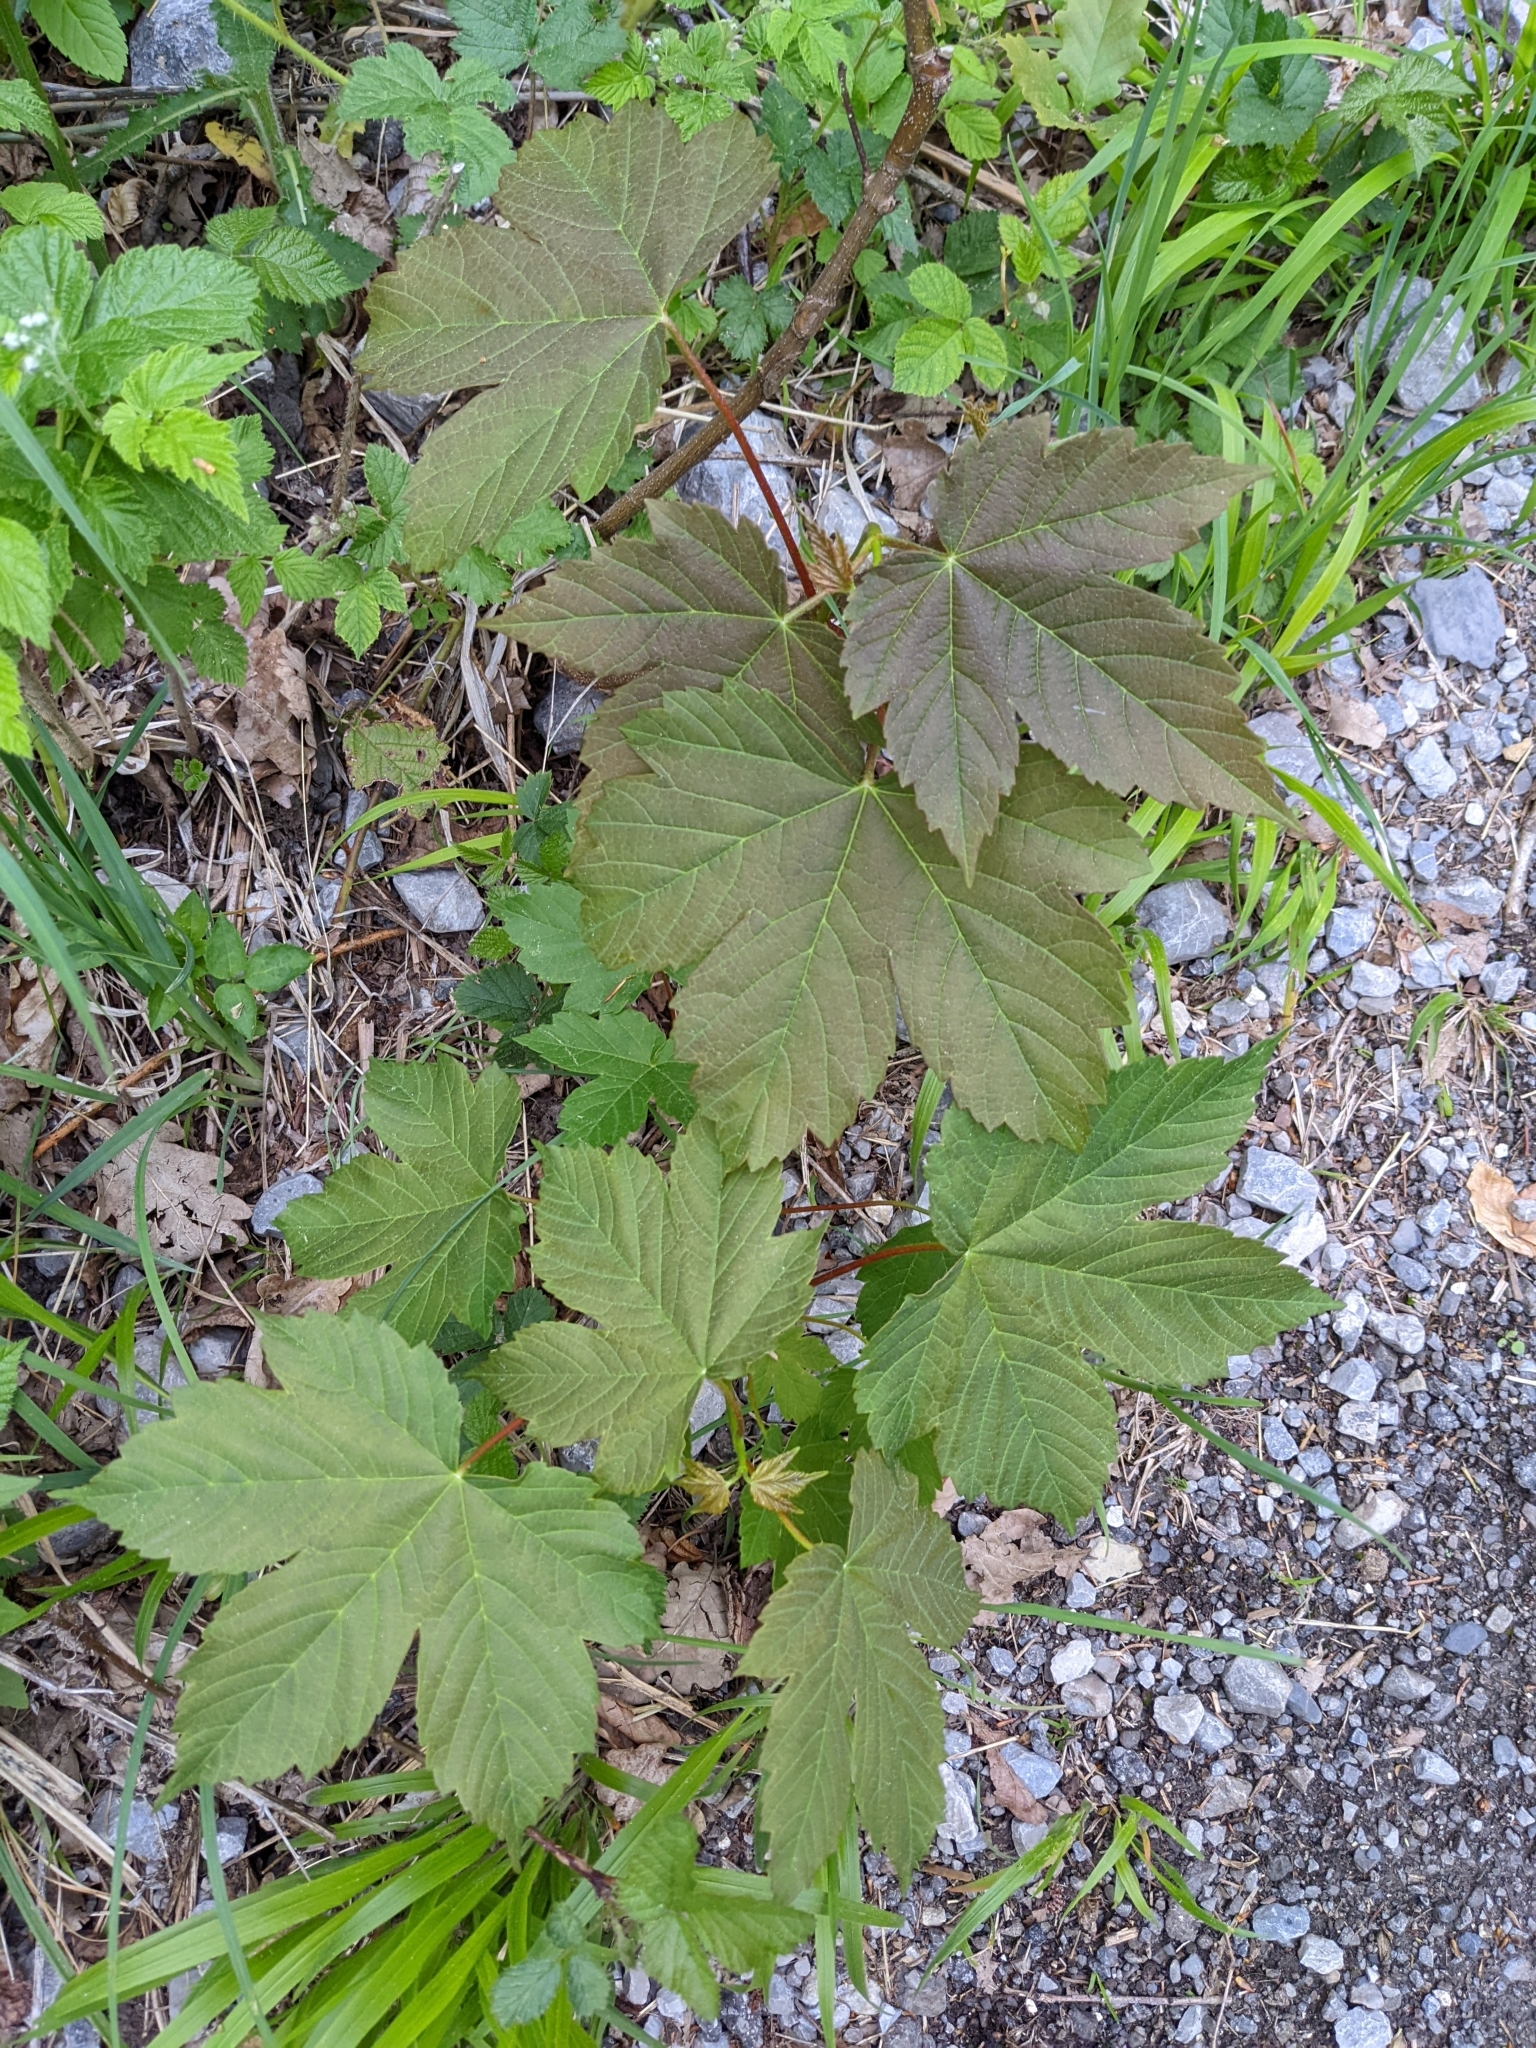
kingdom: Plantae
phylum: Tracheophyta
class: Magnoliopsida
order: Sapindales
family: Sapindaceae
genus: Acer
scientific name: Acer pseudoplatanus
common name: Sycamore
